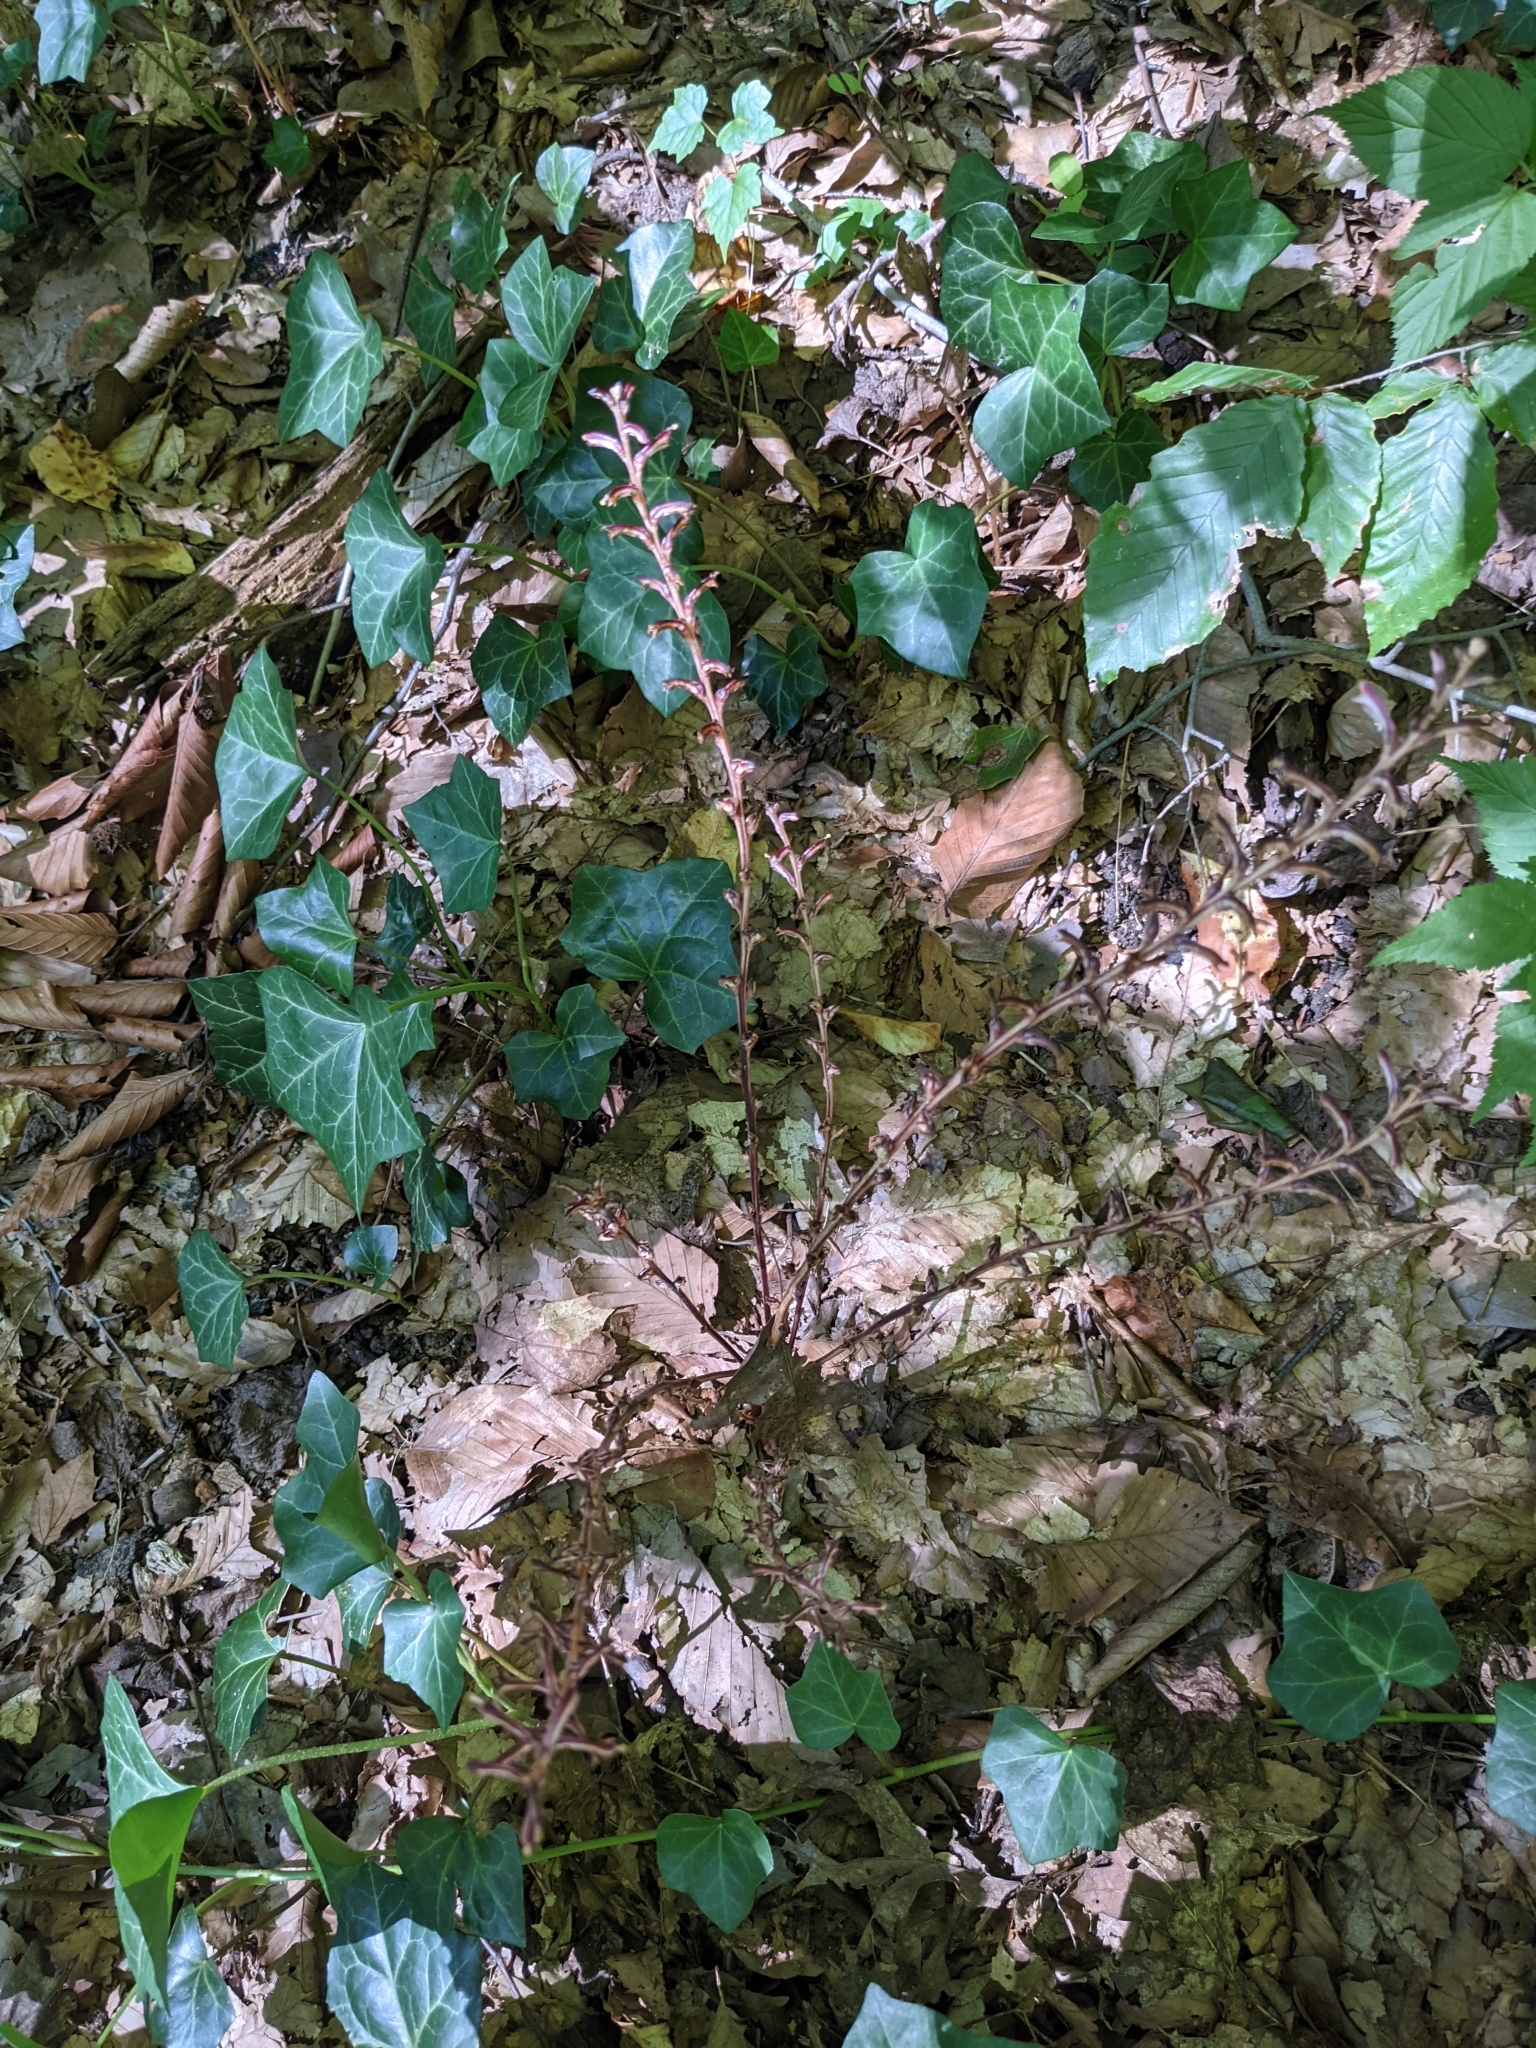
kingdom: Plantae
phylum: Tracheophyta
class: Magnoliopsida
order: Lamiales
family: Orobanchaceae
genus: Epifagus
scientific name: Epifagus virginiana
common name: Beechdrops
